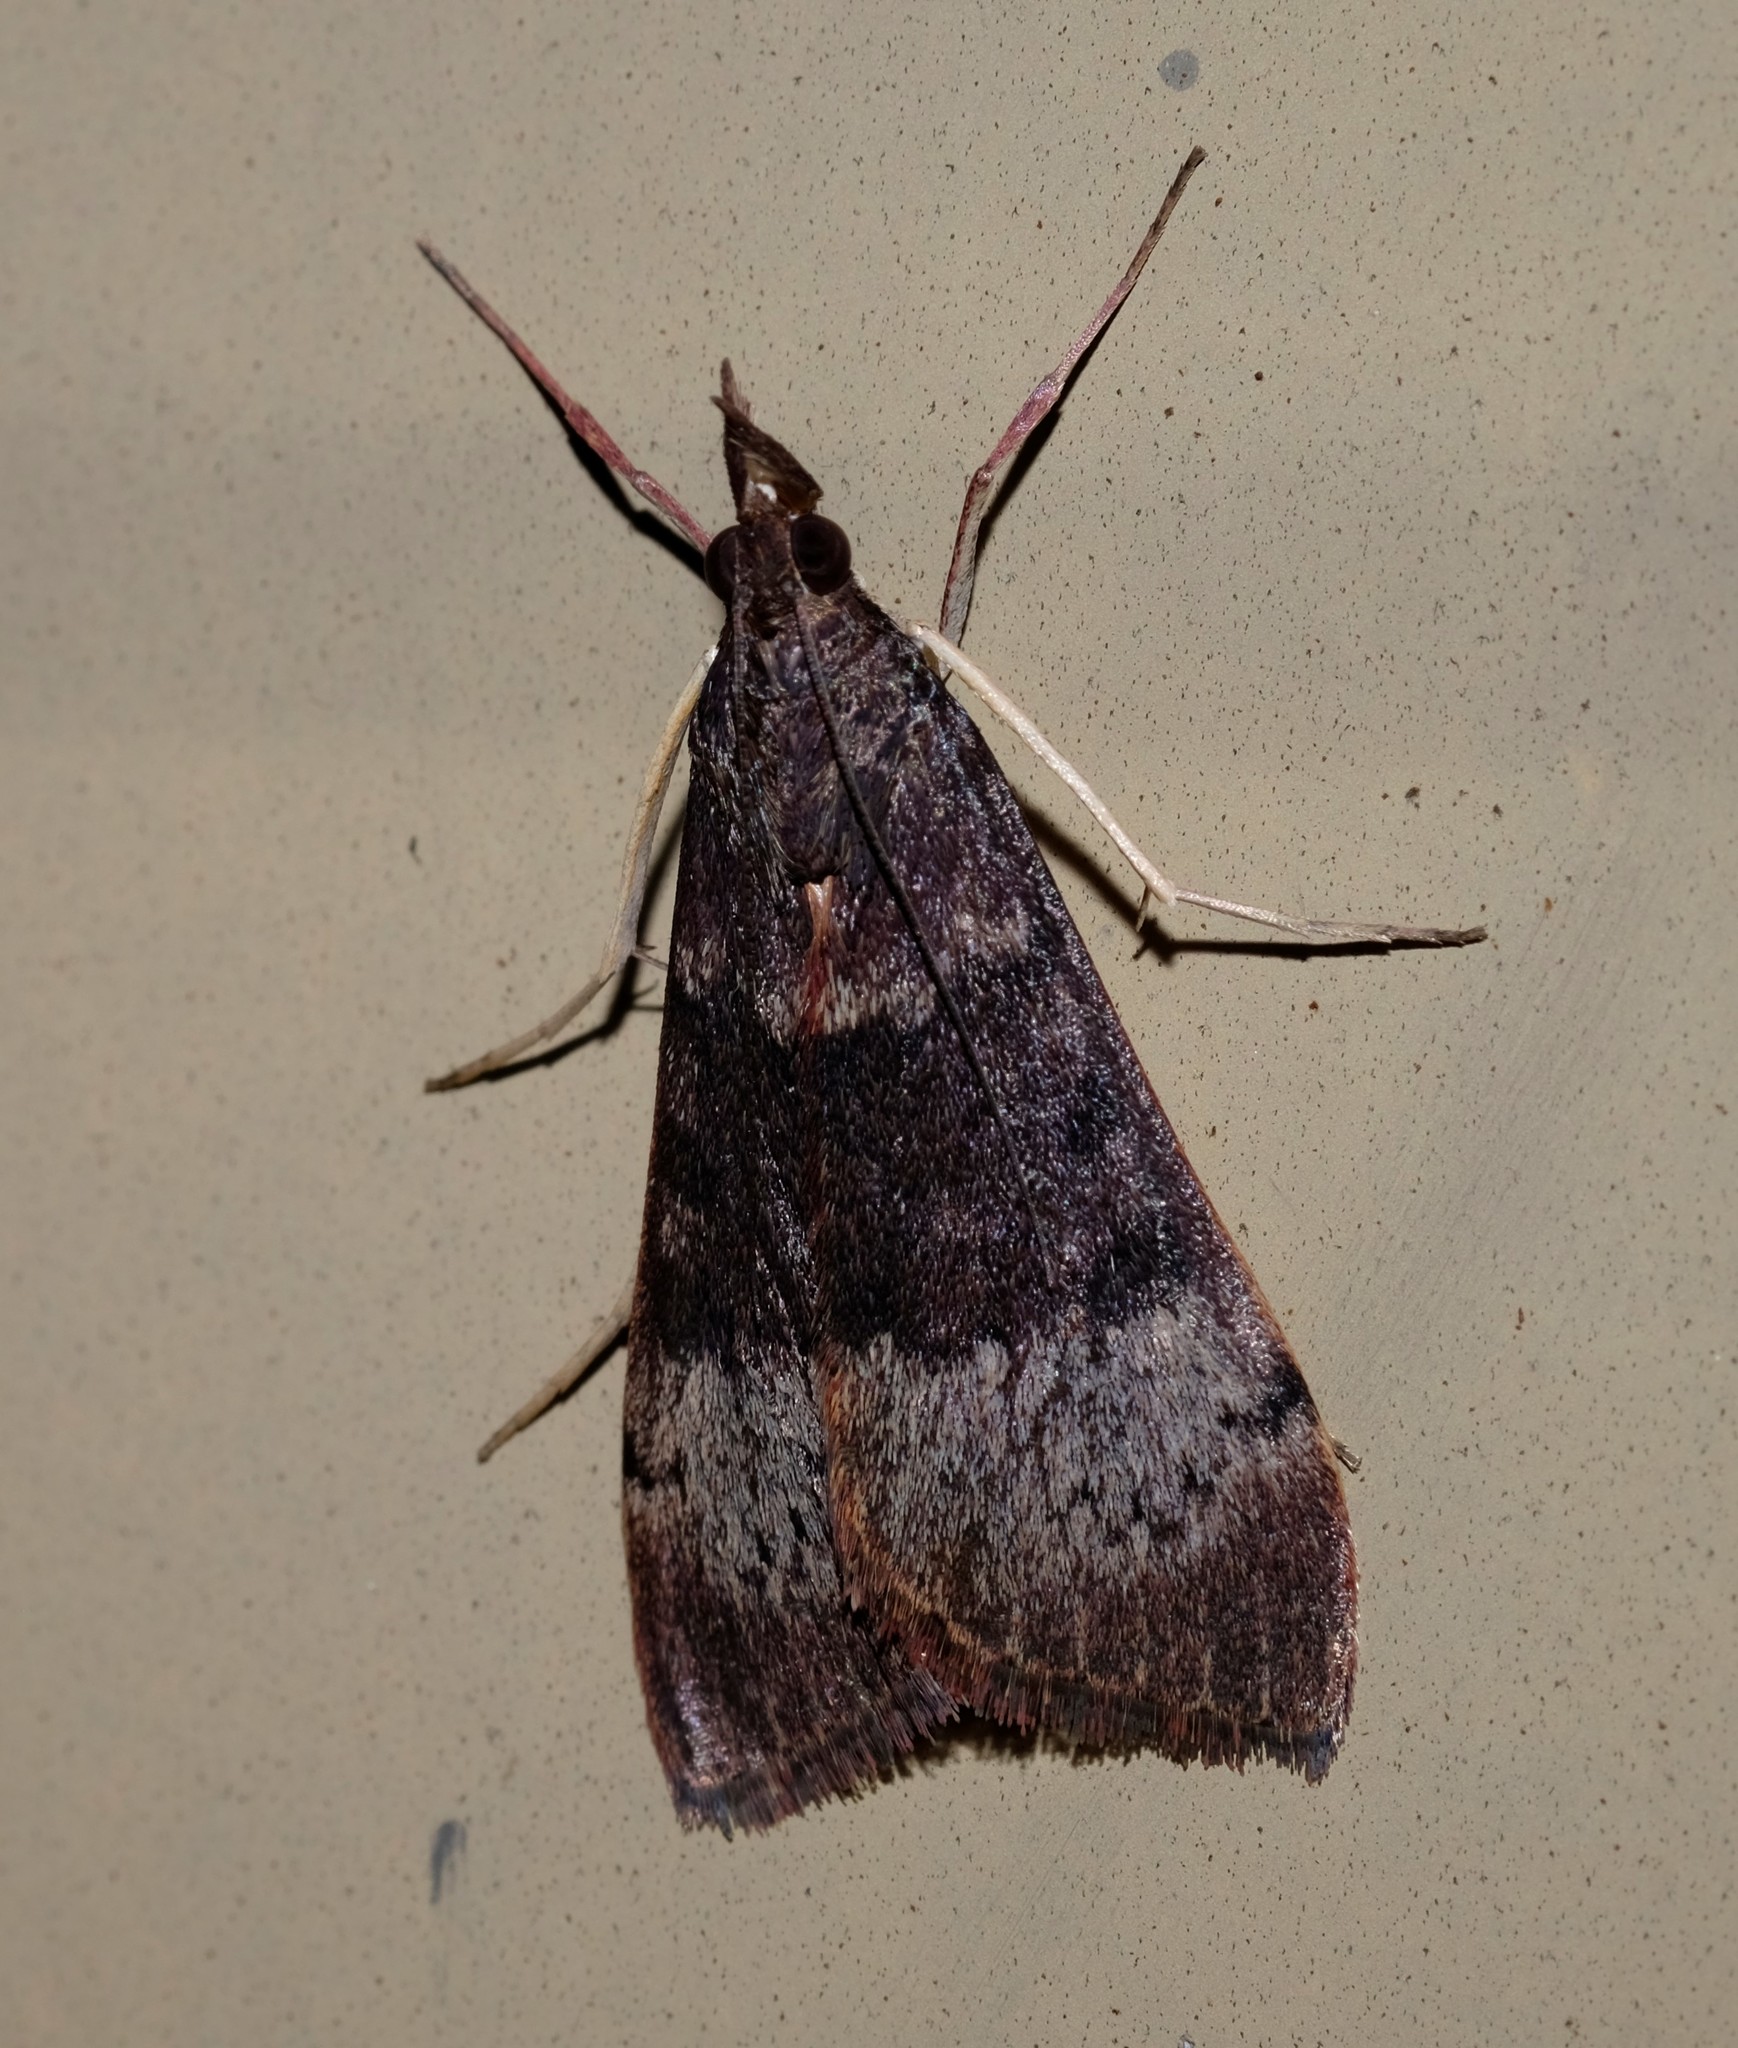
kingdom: Animalia
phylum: Arthropoda
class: Insecta
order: Lepidoptera
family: Crambidae
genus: Uresiphita
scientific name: Uresiphita ornithopteralis
